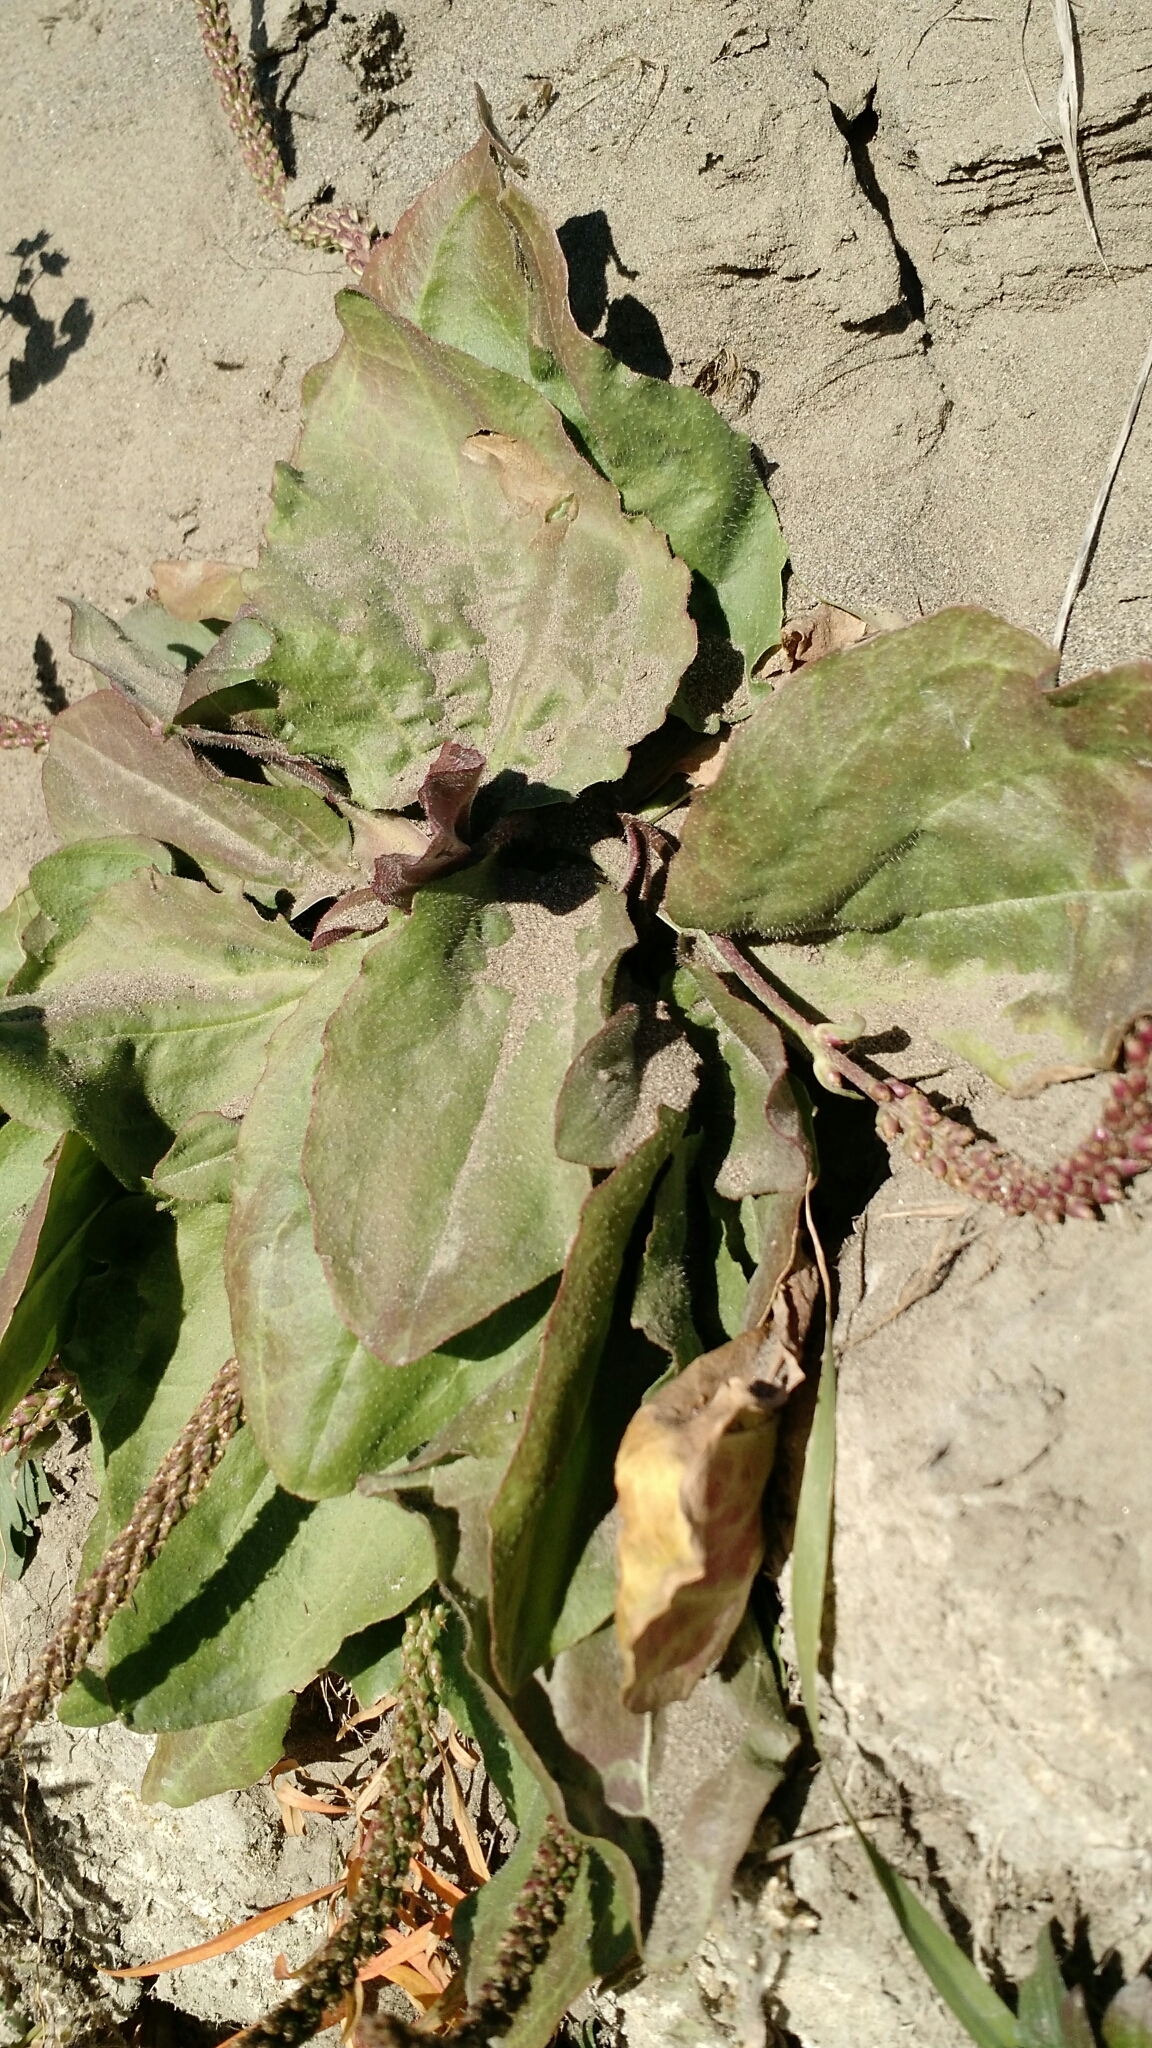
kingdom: Plantae
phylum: Tracheophyta
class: Magnoliopsida
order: Lamiales
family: Plantaginaceae
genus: Plantago
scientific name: Plantago major
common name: Common plantain
